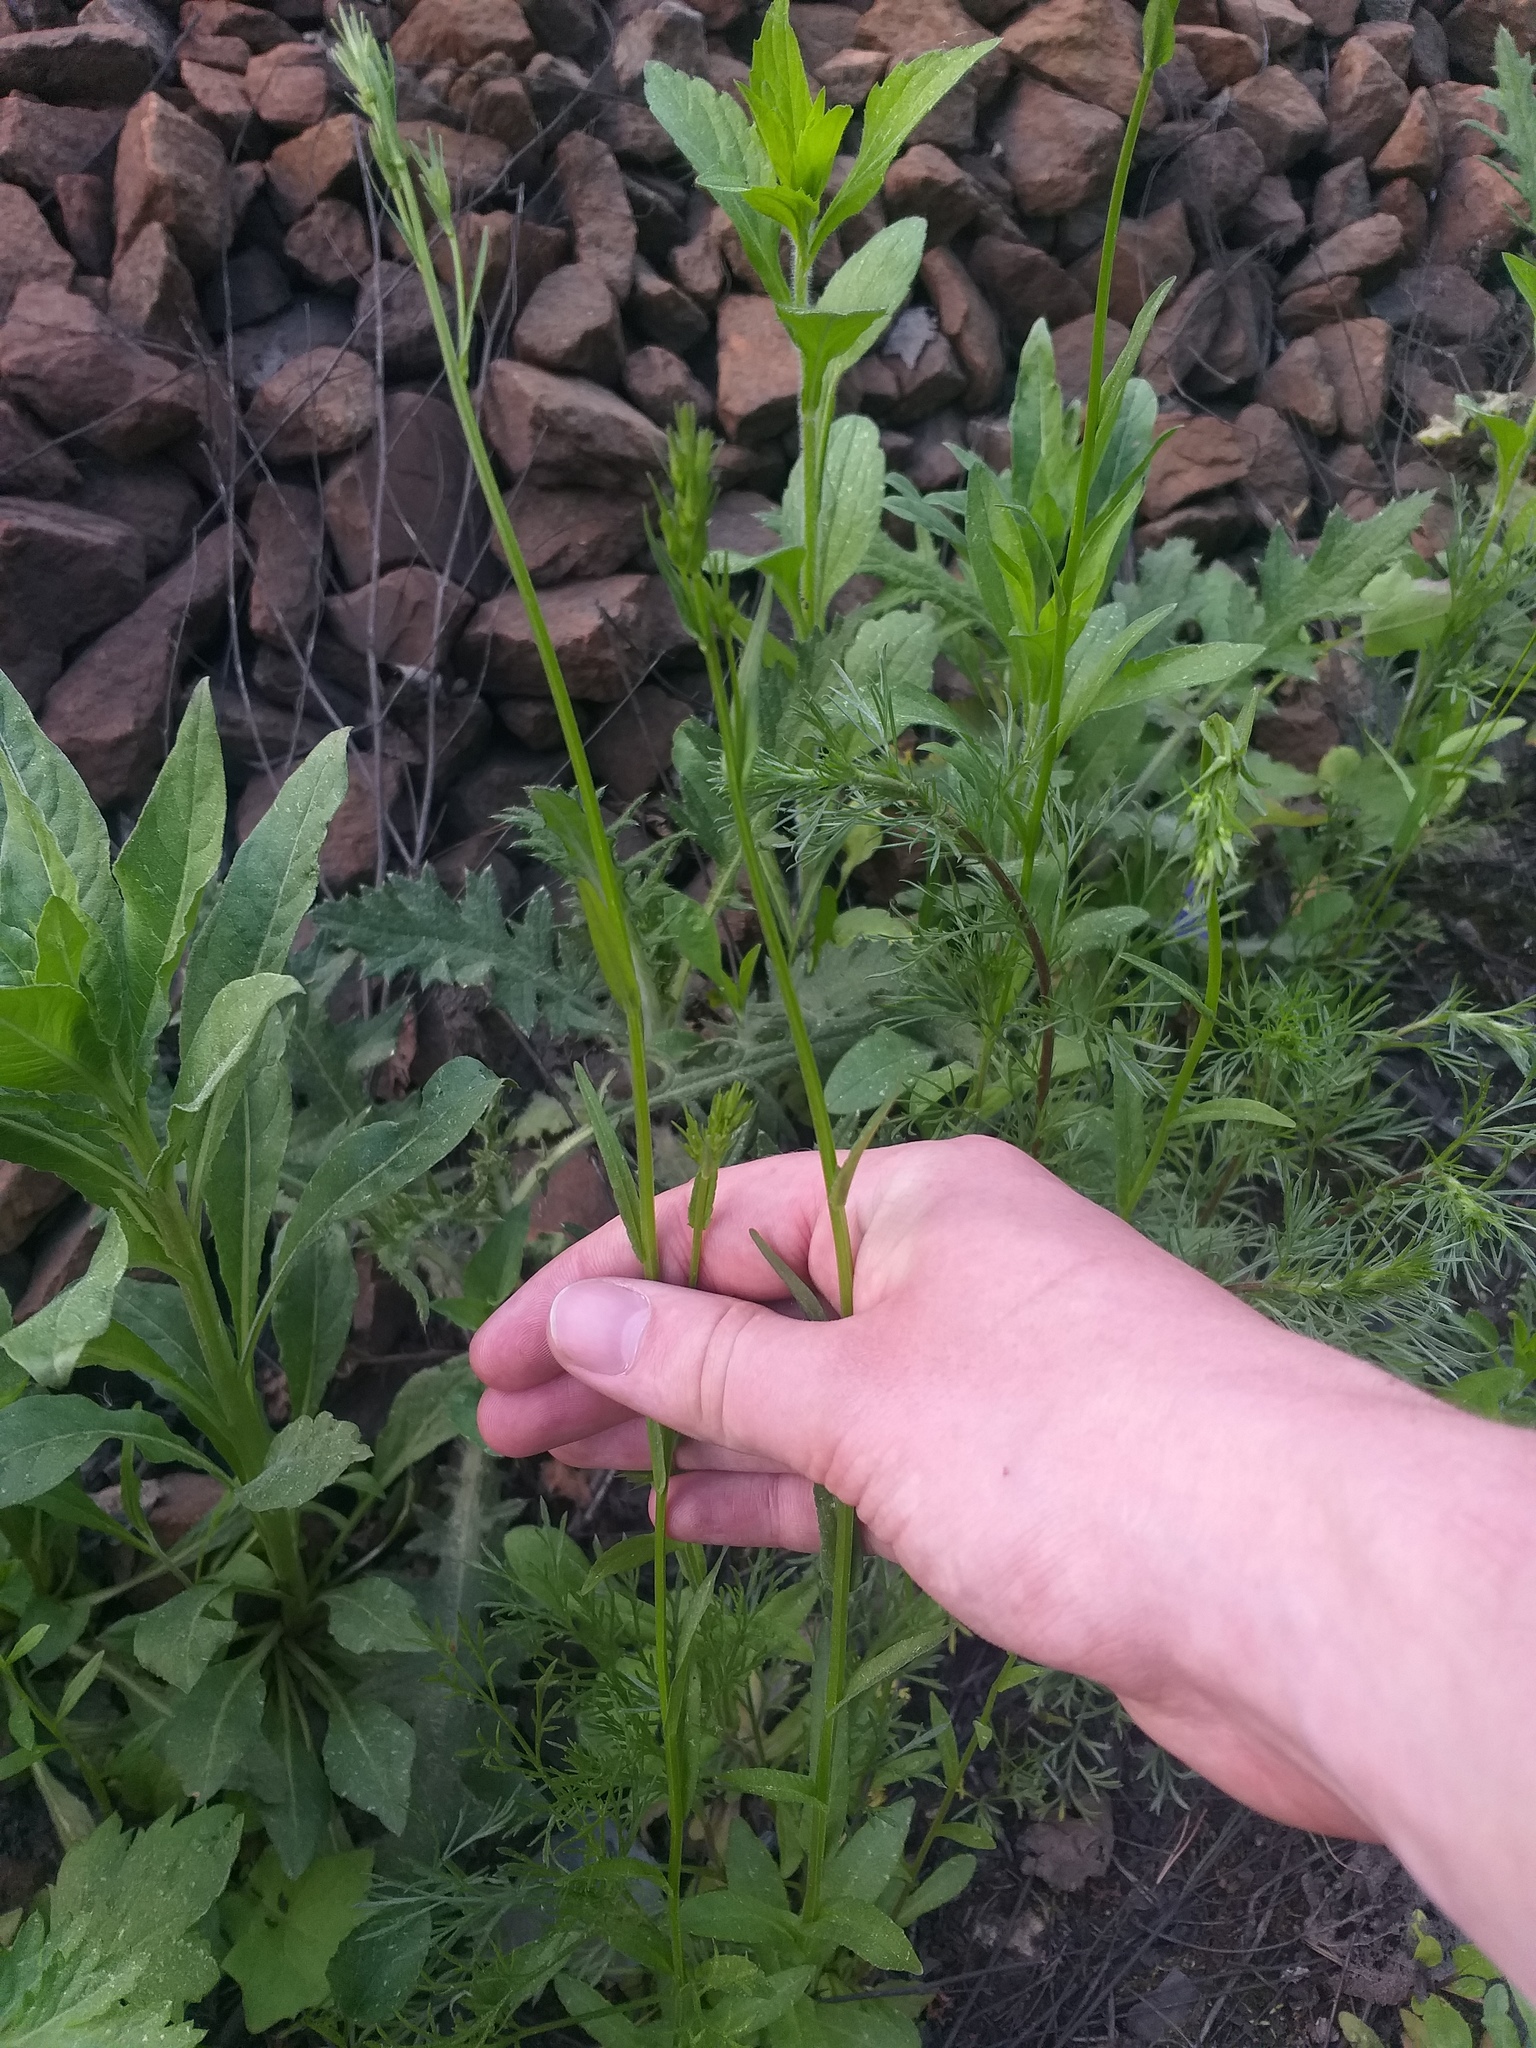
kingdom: Plantae
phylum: Tracheophyta
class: Magnoliopsida
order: Asterales
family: Campanulaceae
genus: Campanula
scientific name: Campanula patula
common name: Spreading bellflower
